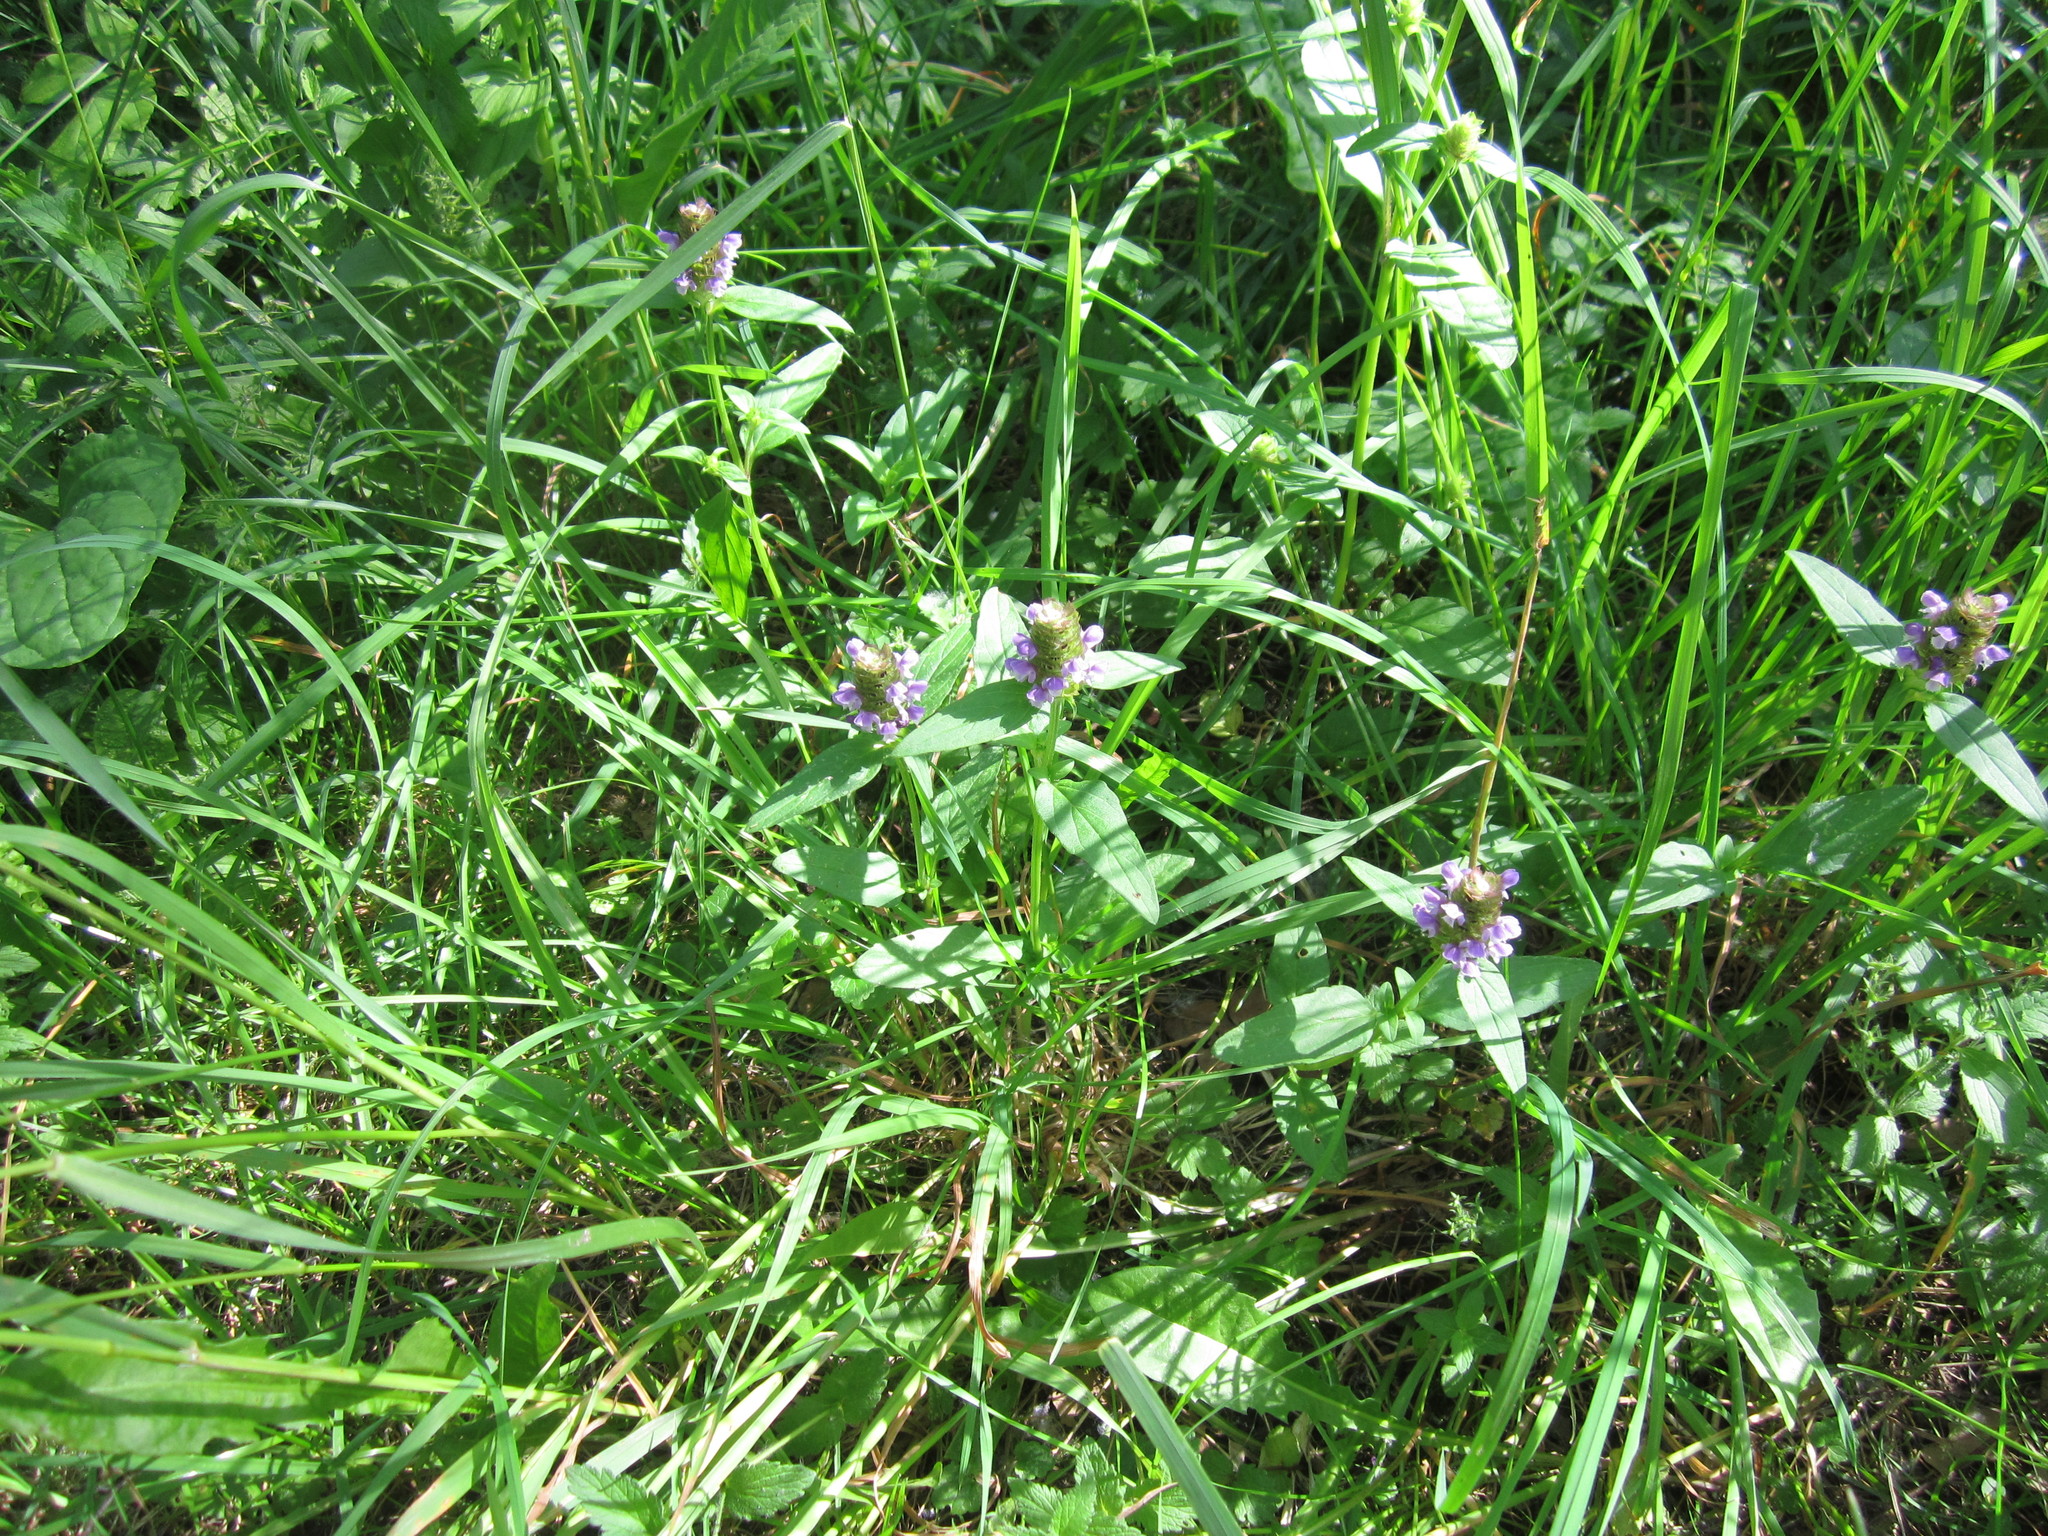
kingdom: Plantae
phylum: Tracheophyta
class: Magnoliopsida
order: Lamiales
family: Lamiaceae
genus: Prunella
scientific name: Prunella vulgaris
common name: Heal-all
